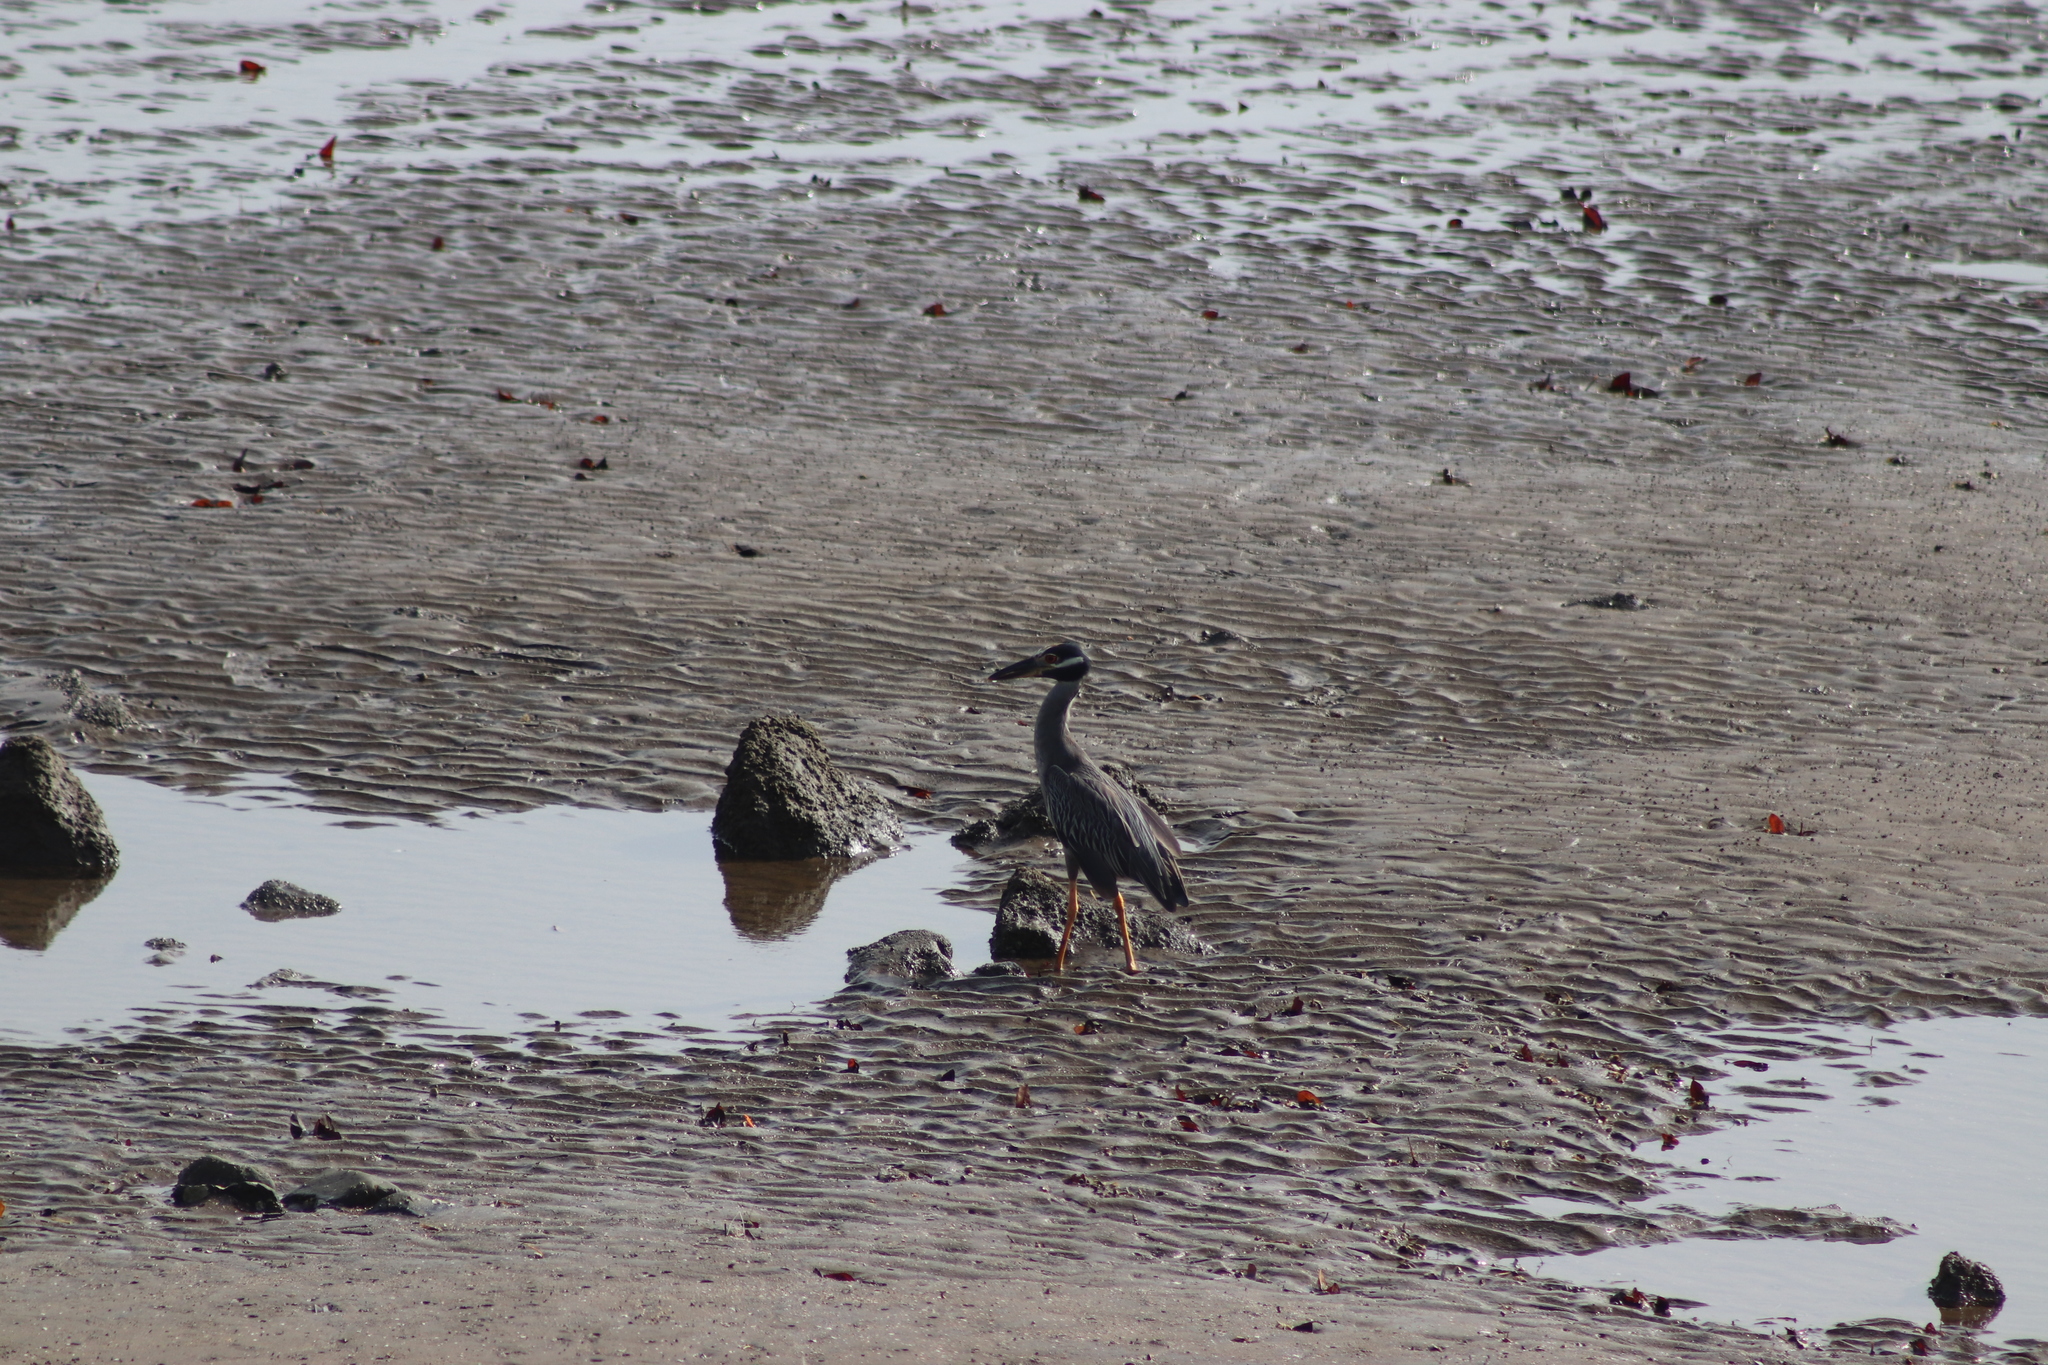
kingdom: Animalia
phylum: Chordata
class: Aves
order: Pelecaniformes
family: Ardeidae
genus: Nyctanassa
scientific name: Nyctanassa violacea
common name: Yellow-crowned night heron
